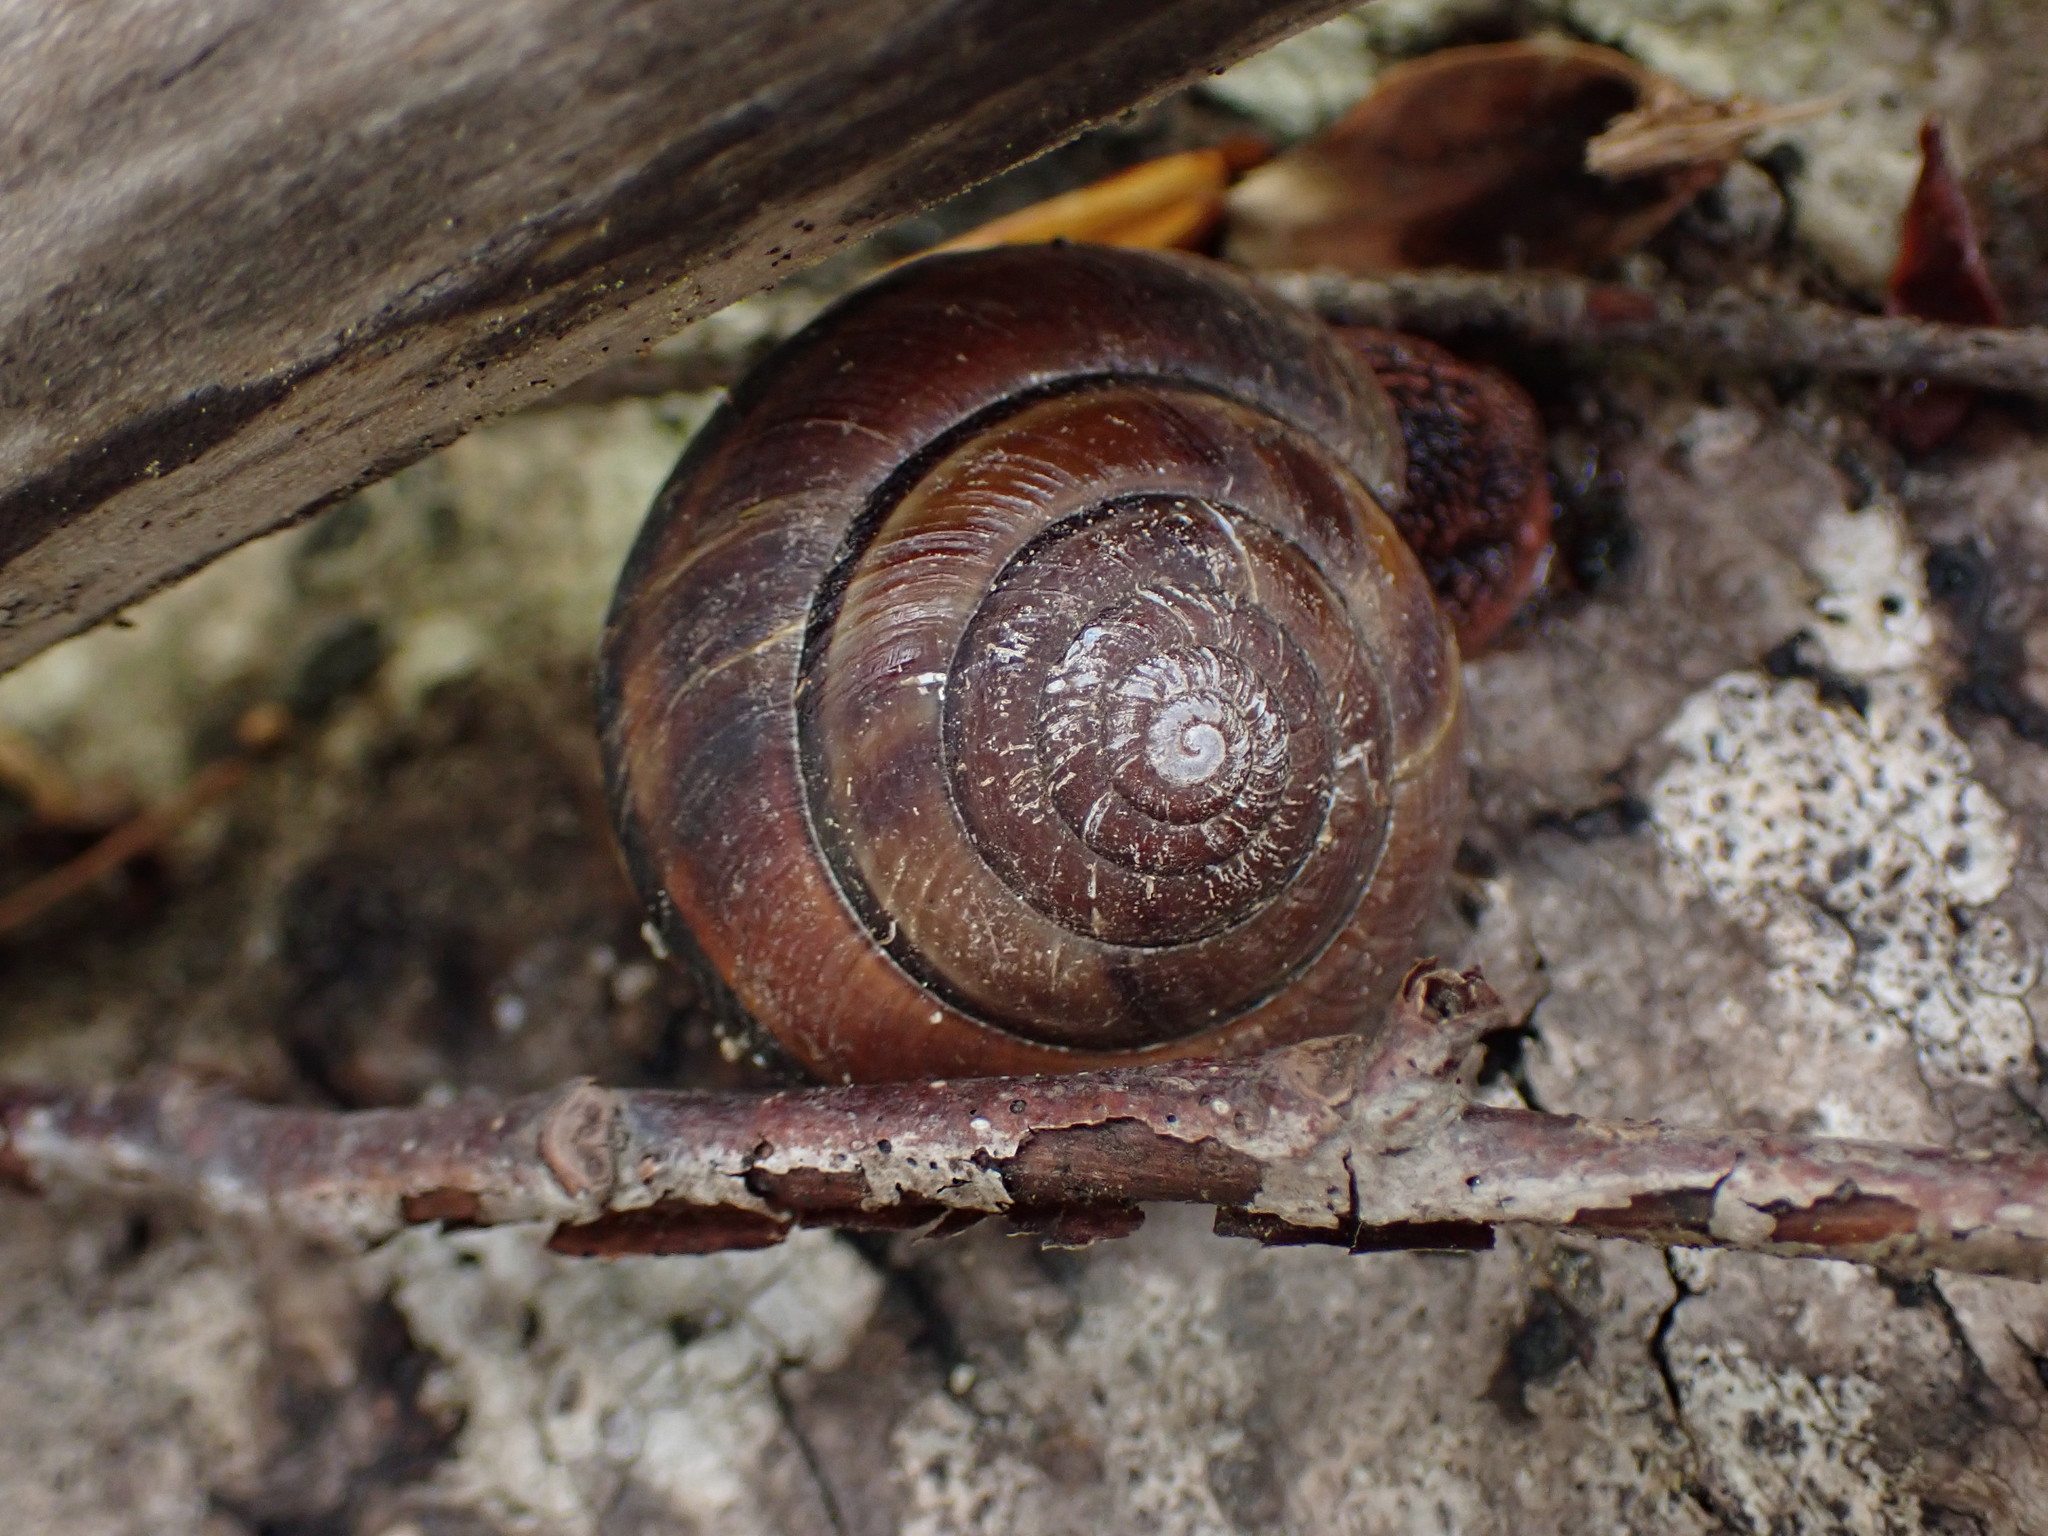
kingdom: Animalia
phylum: Mollusca
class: Gastropoda
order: Stylommatophora
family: Xanthonychidae
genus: Monadenia
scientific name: Monadenia fidelis
